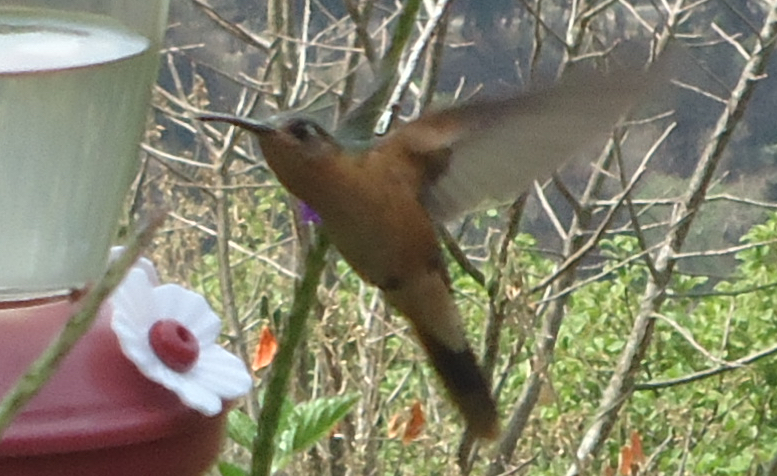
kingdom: Animalia
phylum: Chordata
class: Aves
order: Apodiformes
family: Trochilidae
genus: Pampa
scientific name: Pampa rufa
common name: Rufous sabrewing
